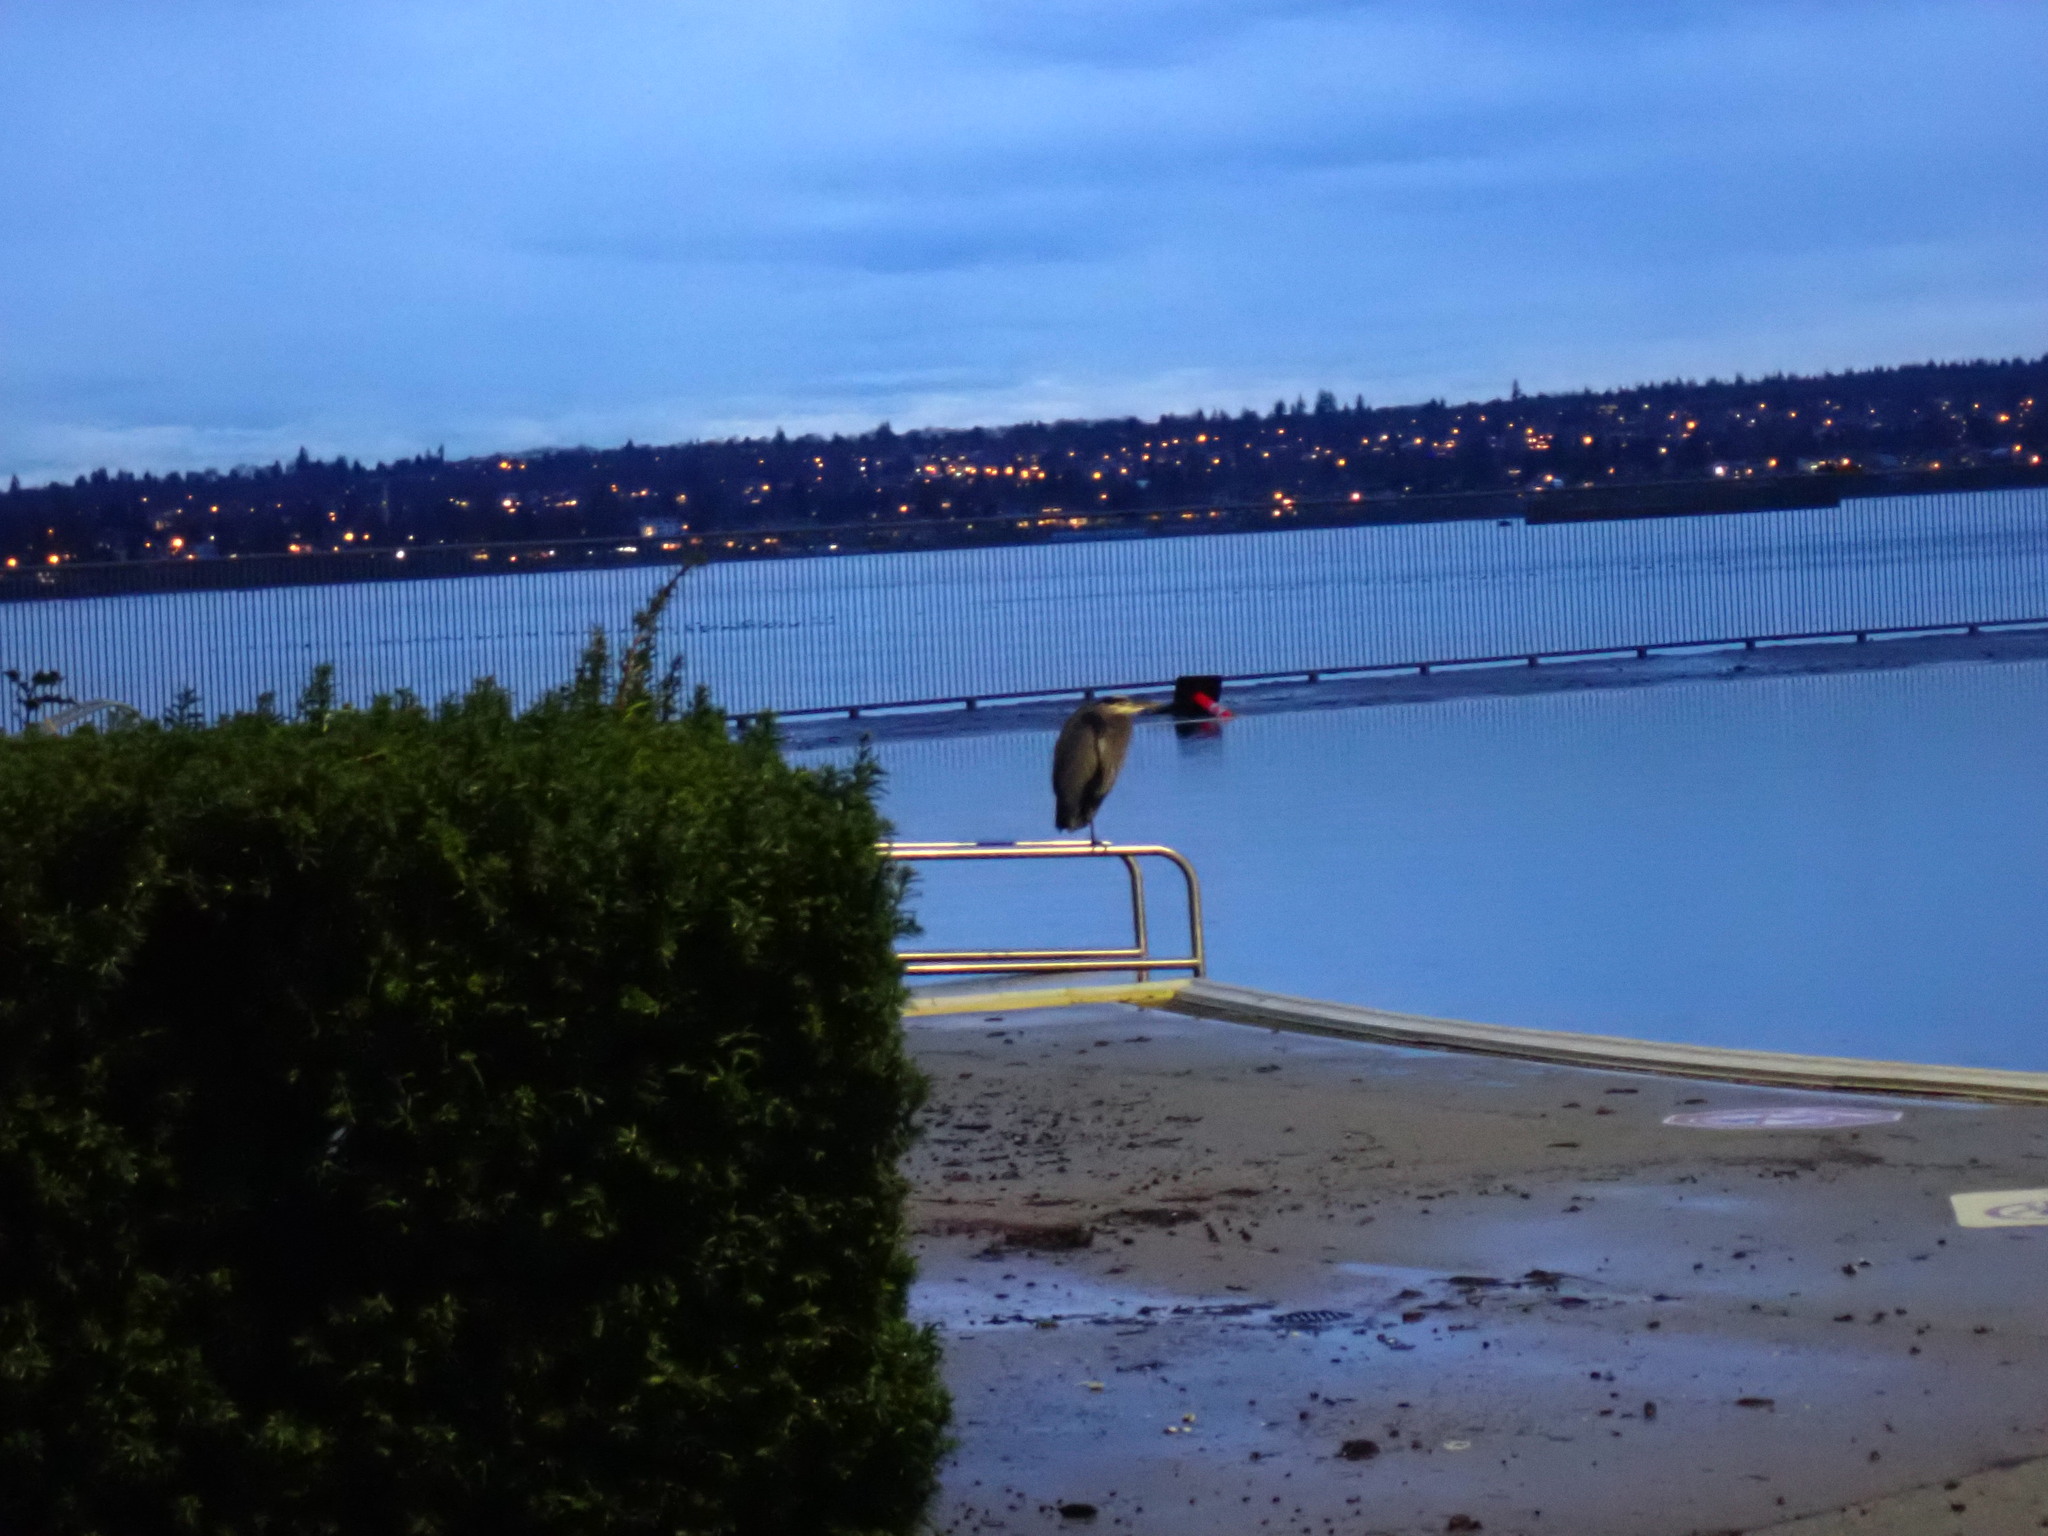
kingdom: Animalia
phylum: Chordata
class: Aves
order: Pelecaniformes
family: Ardeidae
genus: Ardea
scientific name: Ardea herodias
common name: Great blue heron
